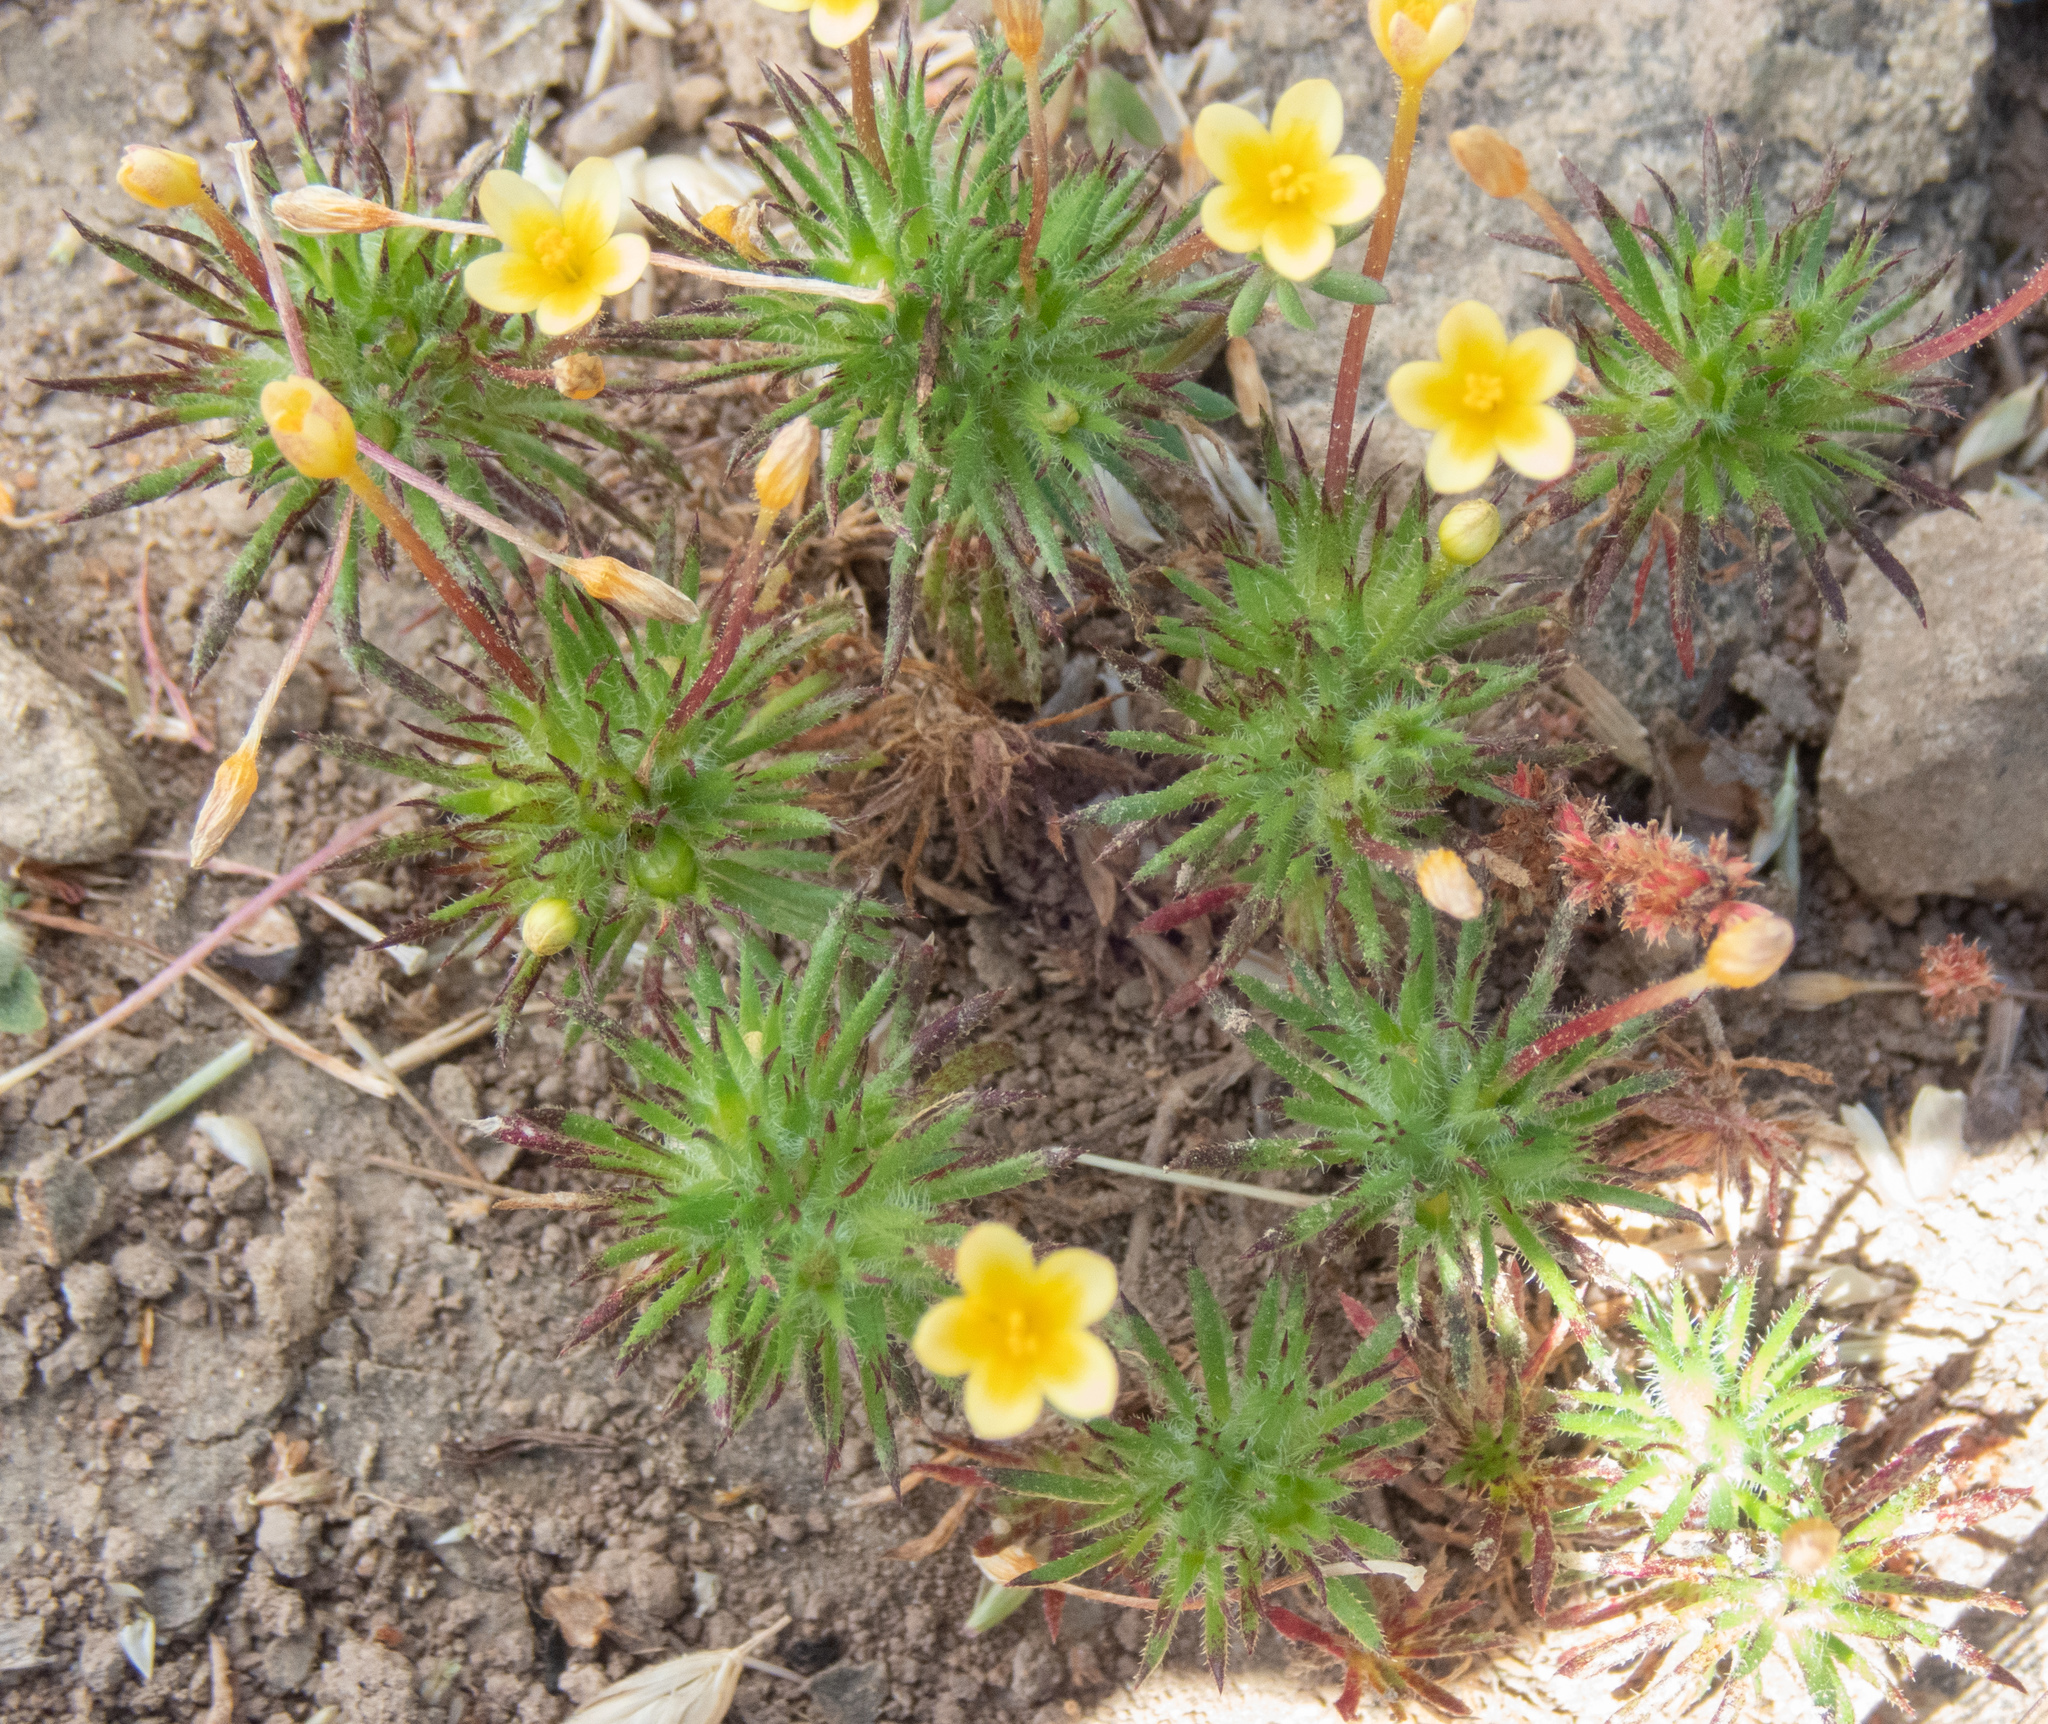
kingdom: Plantae
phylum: Tracheophyta
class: Magnoliopsida
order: Ericales
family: Polemoniaceae
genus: Leptosiphon
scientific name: Leptosiphon bicolor
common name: True babystars
